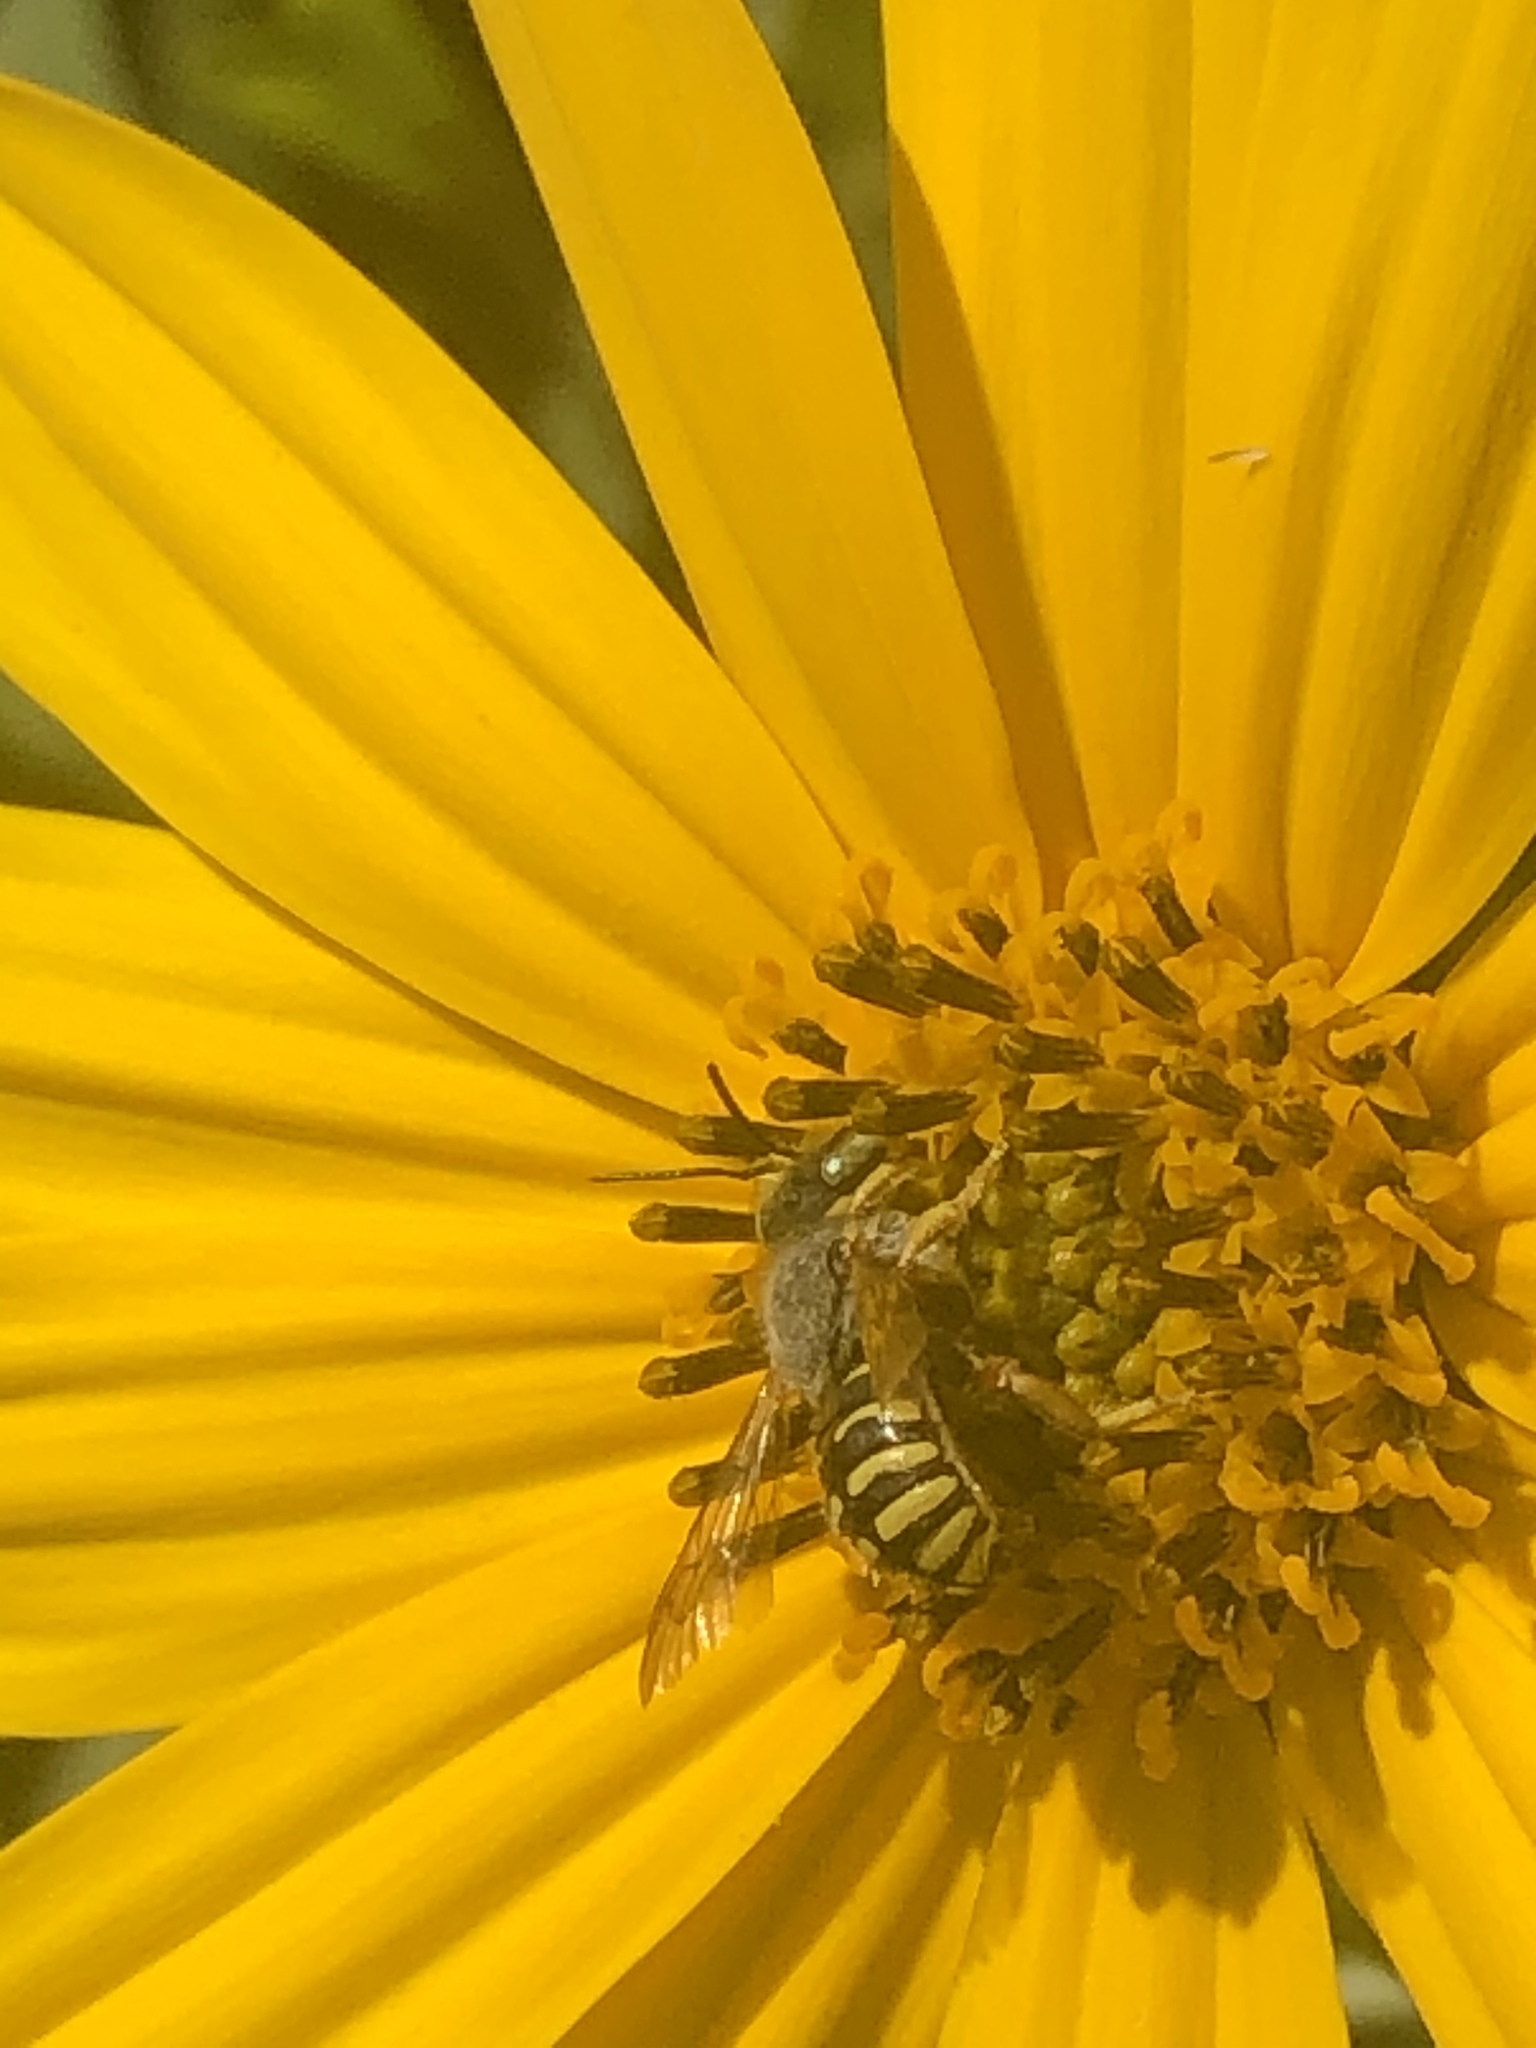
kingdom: Animalia
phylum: Arthropoda
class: Insecta
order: Hymenoptera
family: Megachilidae
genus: Anthidium
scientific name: Anthidium oblongatum
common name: Oblong wool carder bee
